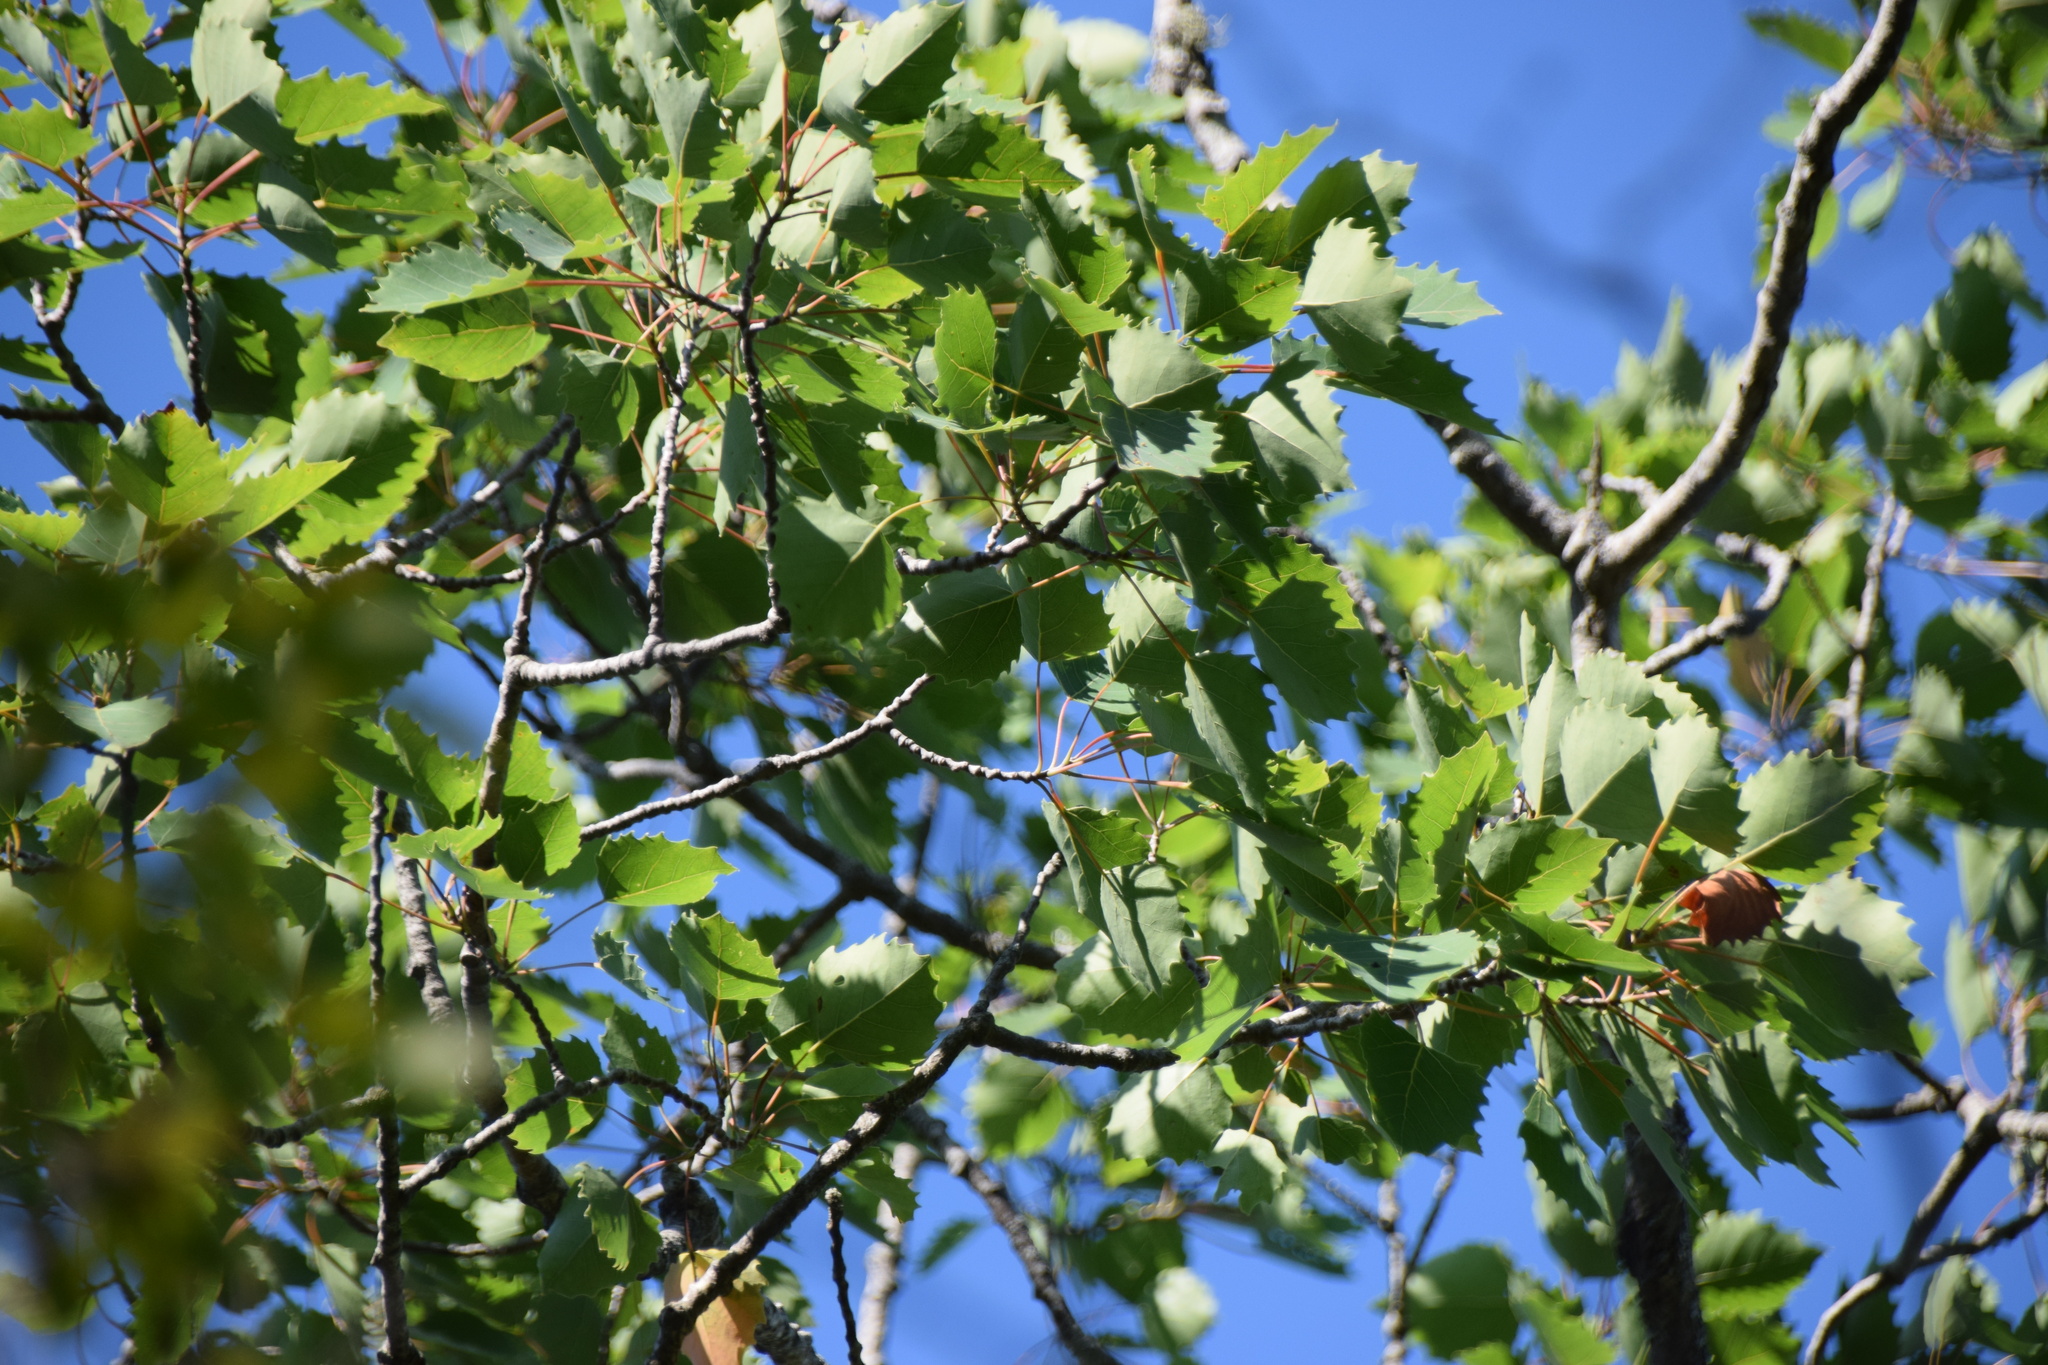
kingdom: Plantae
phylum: Tracheophyta
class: Magnoliopsida
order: Malpighiales
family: Salicaceae
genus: Populus
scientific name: Populus grandidentata
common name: Bigtooth aspen
